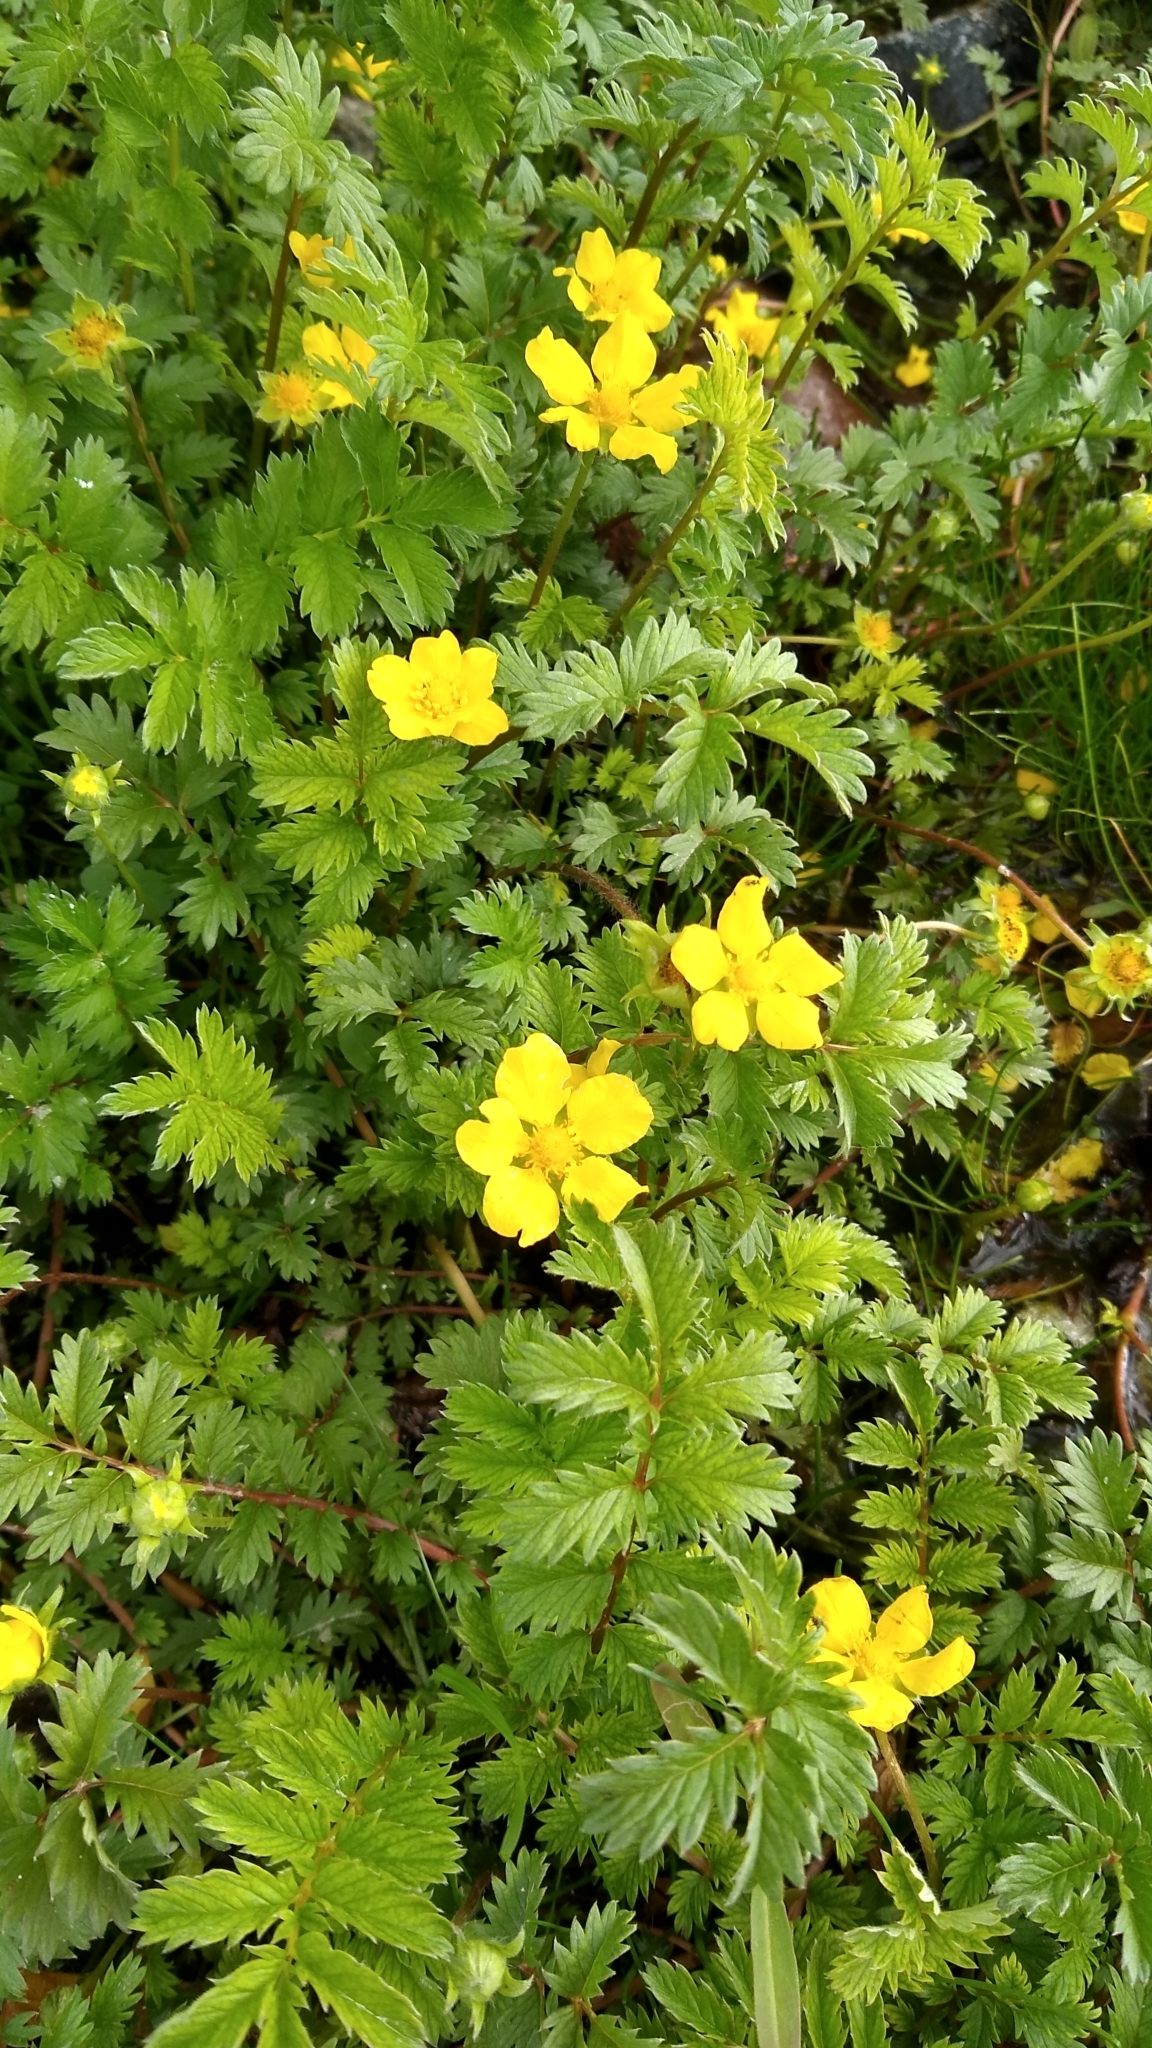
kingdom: Plantae
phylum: Tracheophyta
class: Magnoliopsida
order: Rosales
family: Rosaceae
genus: Argentina
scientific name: Argentina anserina
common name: Common silverweed
